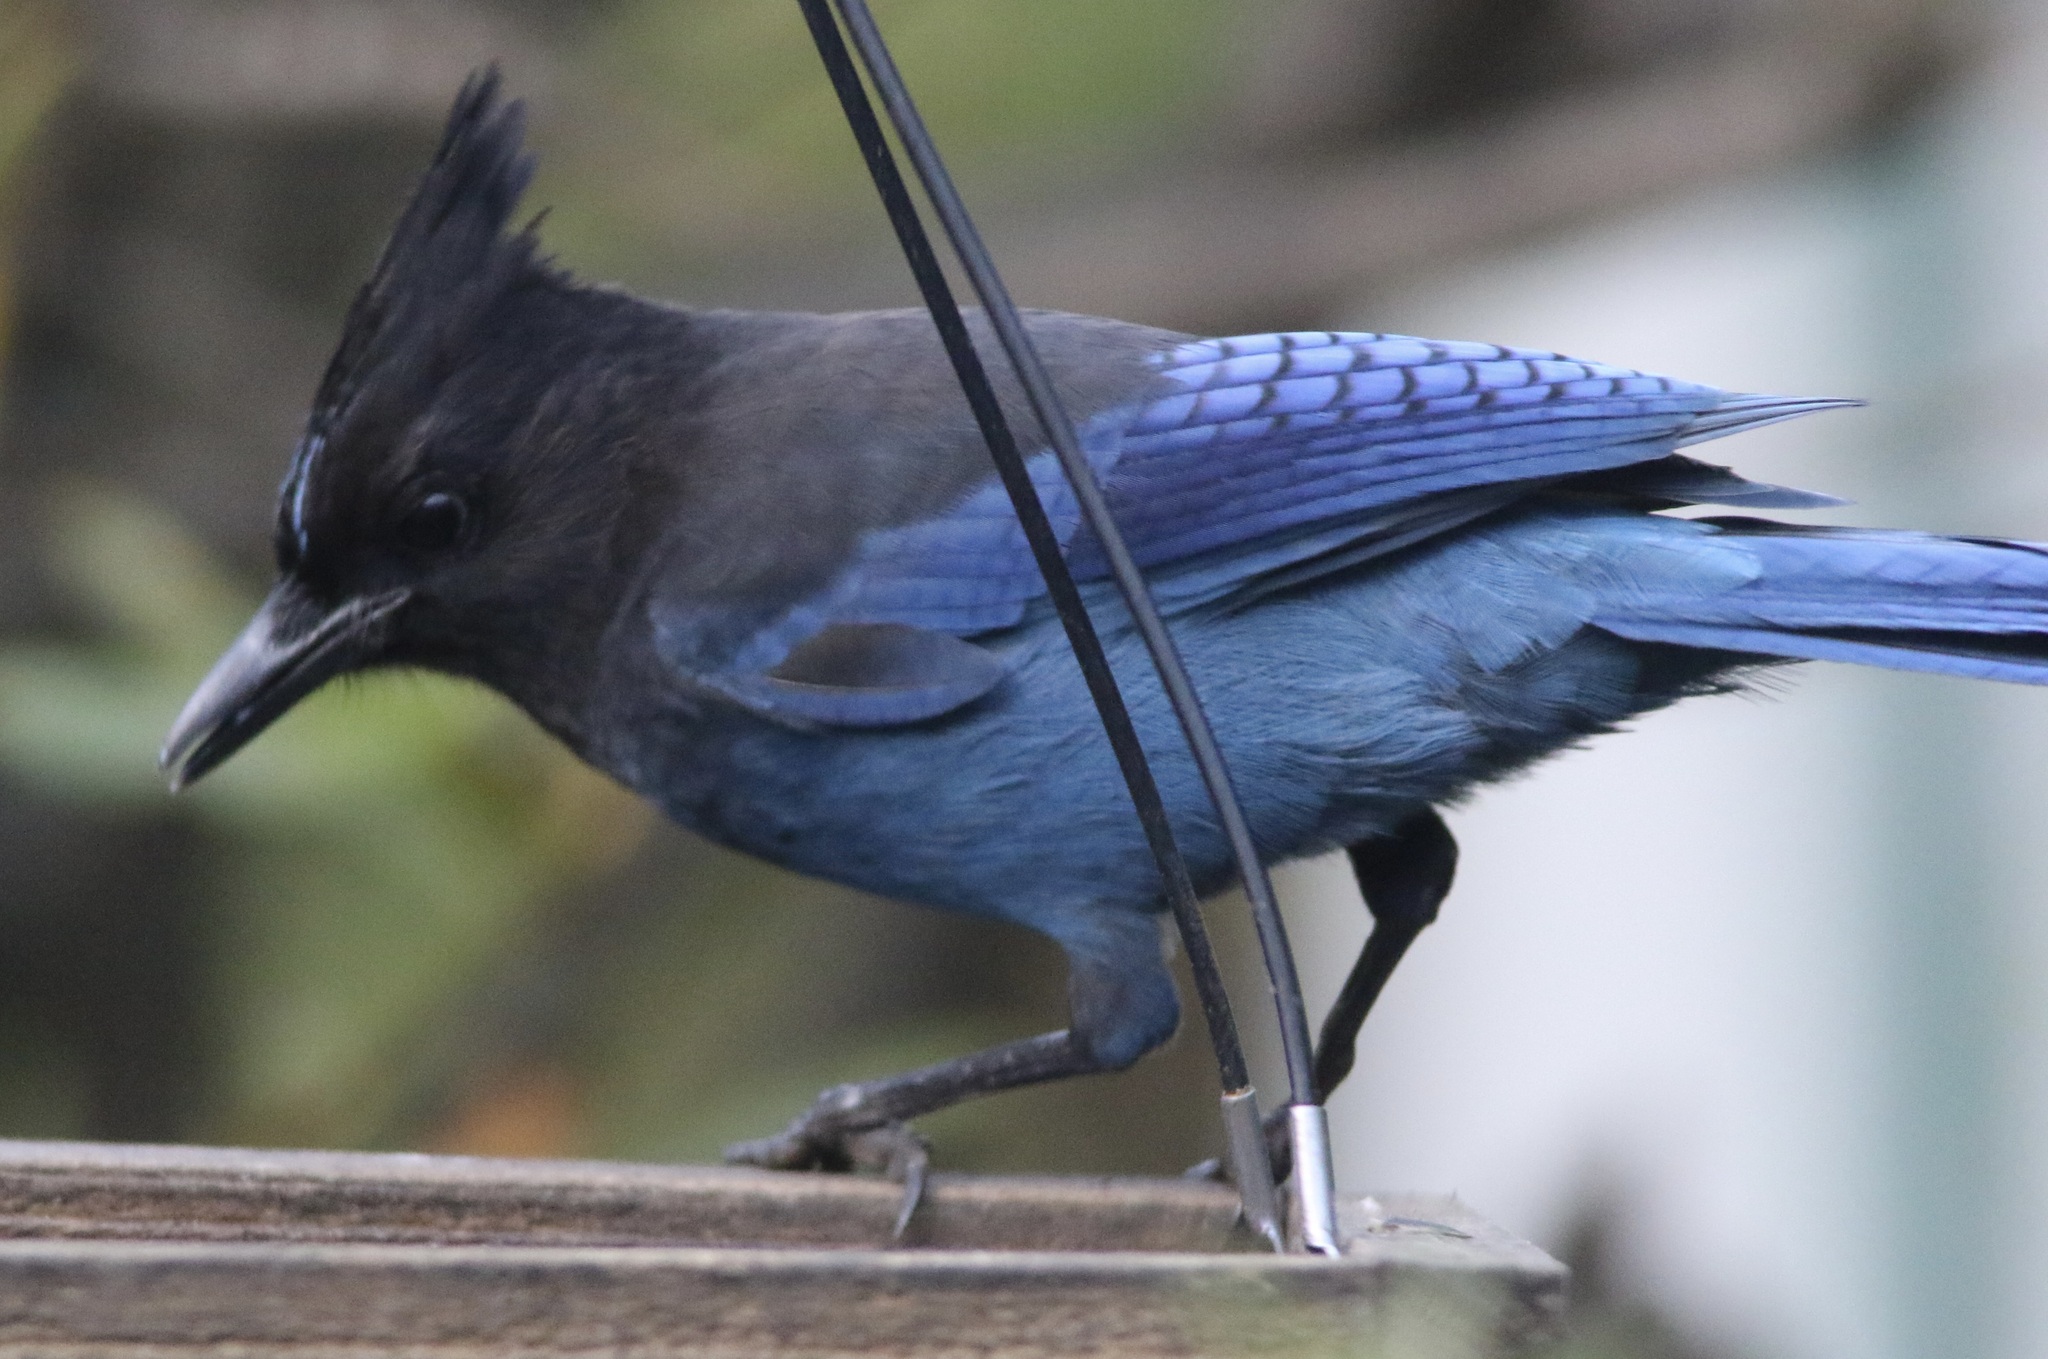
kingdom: Animalia
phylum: Chordata
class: Aves
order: Passeriformes
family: Corvidae
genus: Cyanocitta
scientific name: Cyanocitta stelleri
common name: Steller's jay
